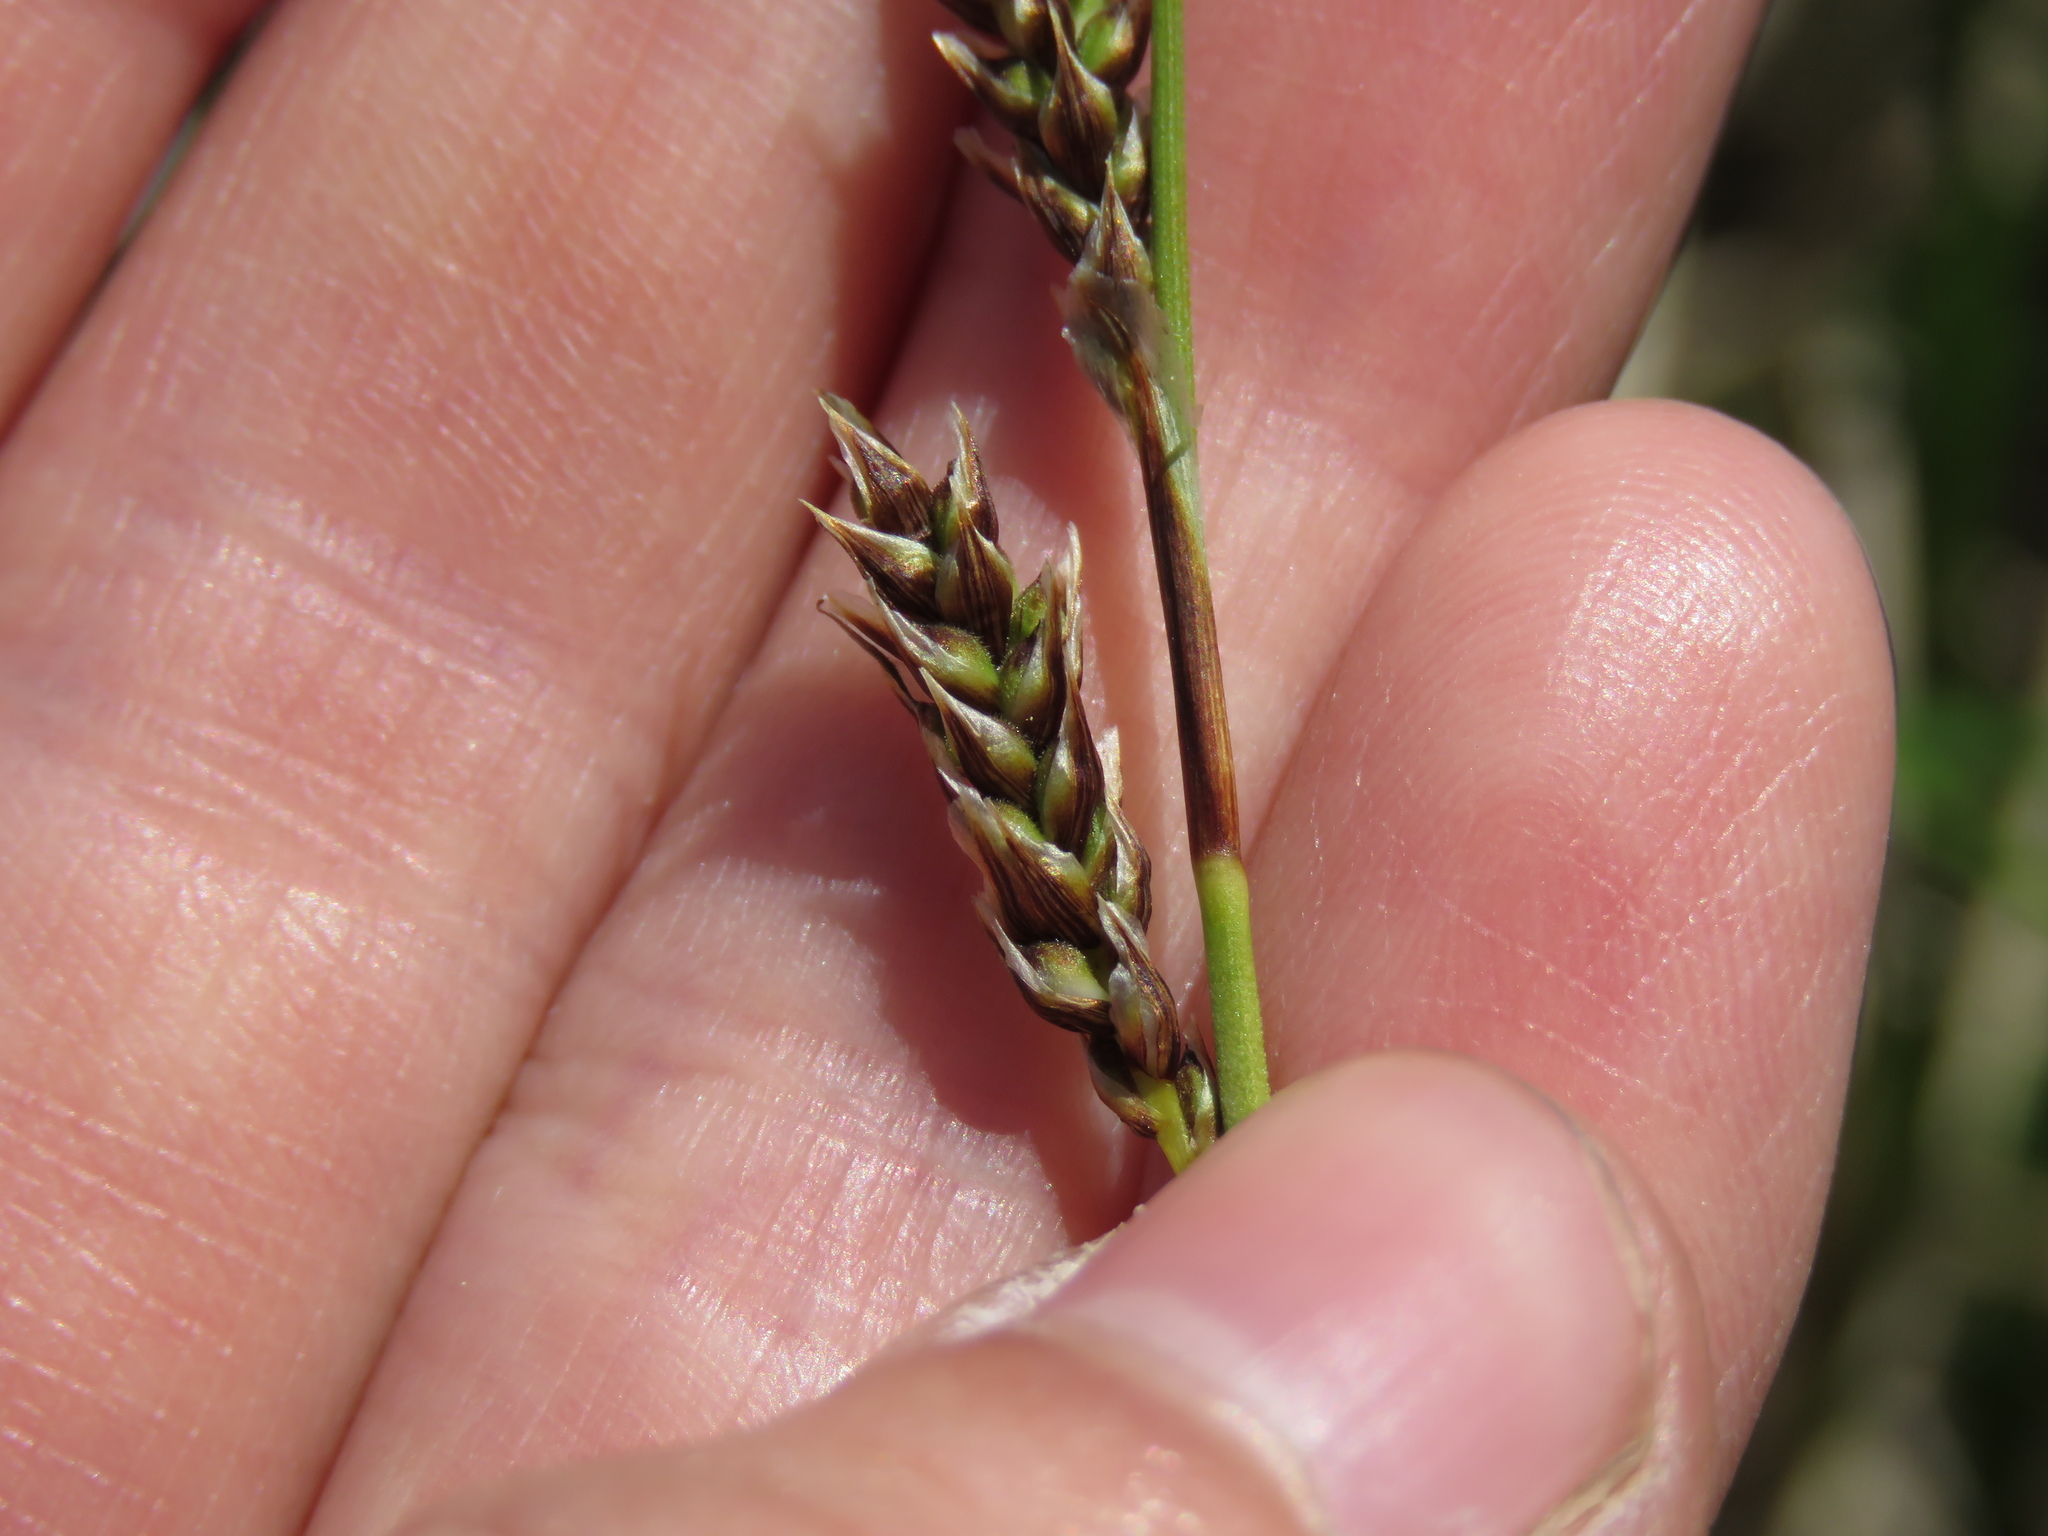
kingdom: Plantae
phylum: Tracheophyta
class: Liliopsida
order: Poales
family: Cyperaceae
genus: Carex
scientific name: Carex richardsonii
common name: Prairie hummock sedge
